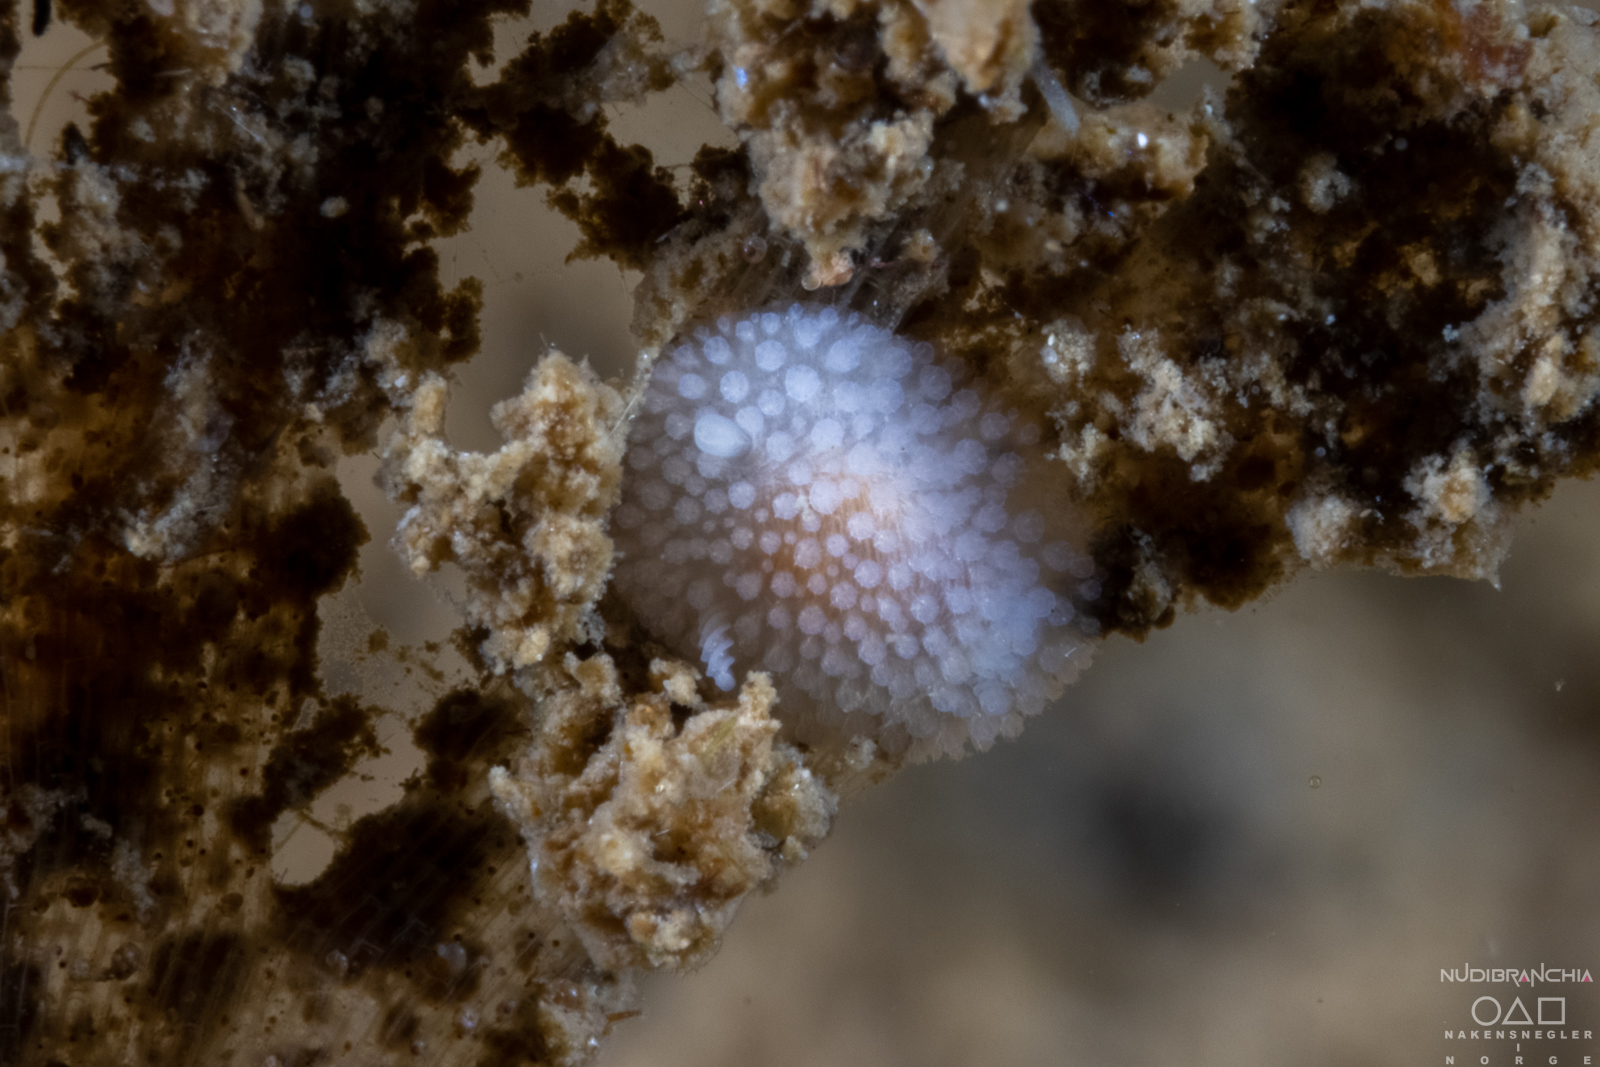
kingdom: Animalia
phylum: Mollusca
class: Gastropoda
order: Nudibranchia
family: Onchidorididae
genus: Onchidoris
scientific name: Onchidoris muricata
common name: Rough doris
